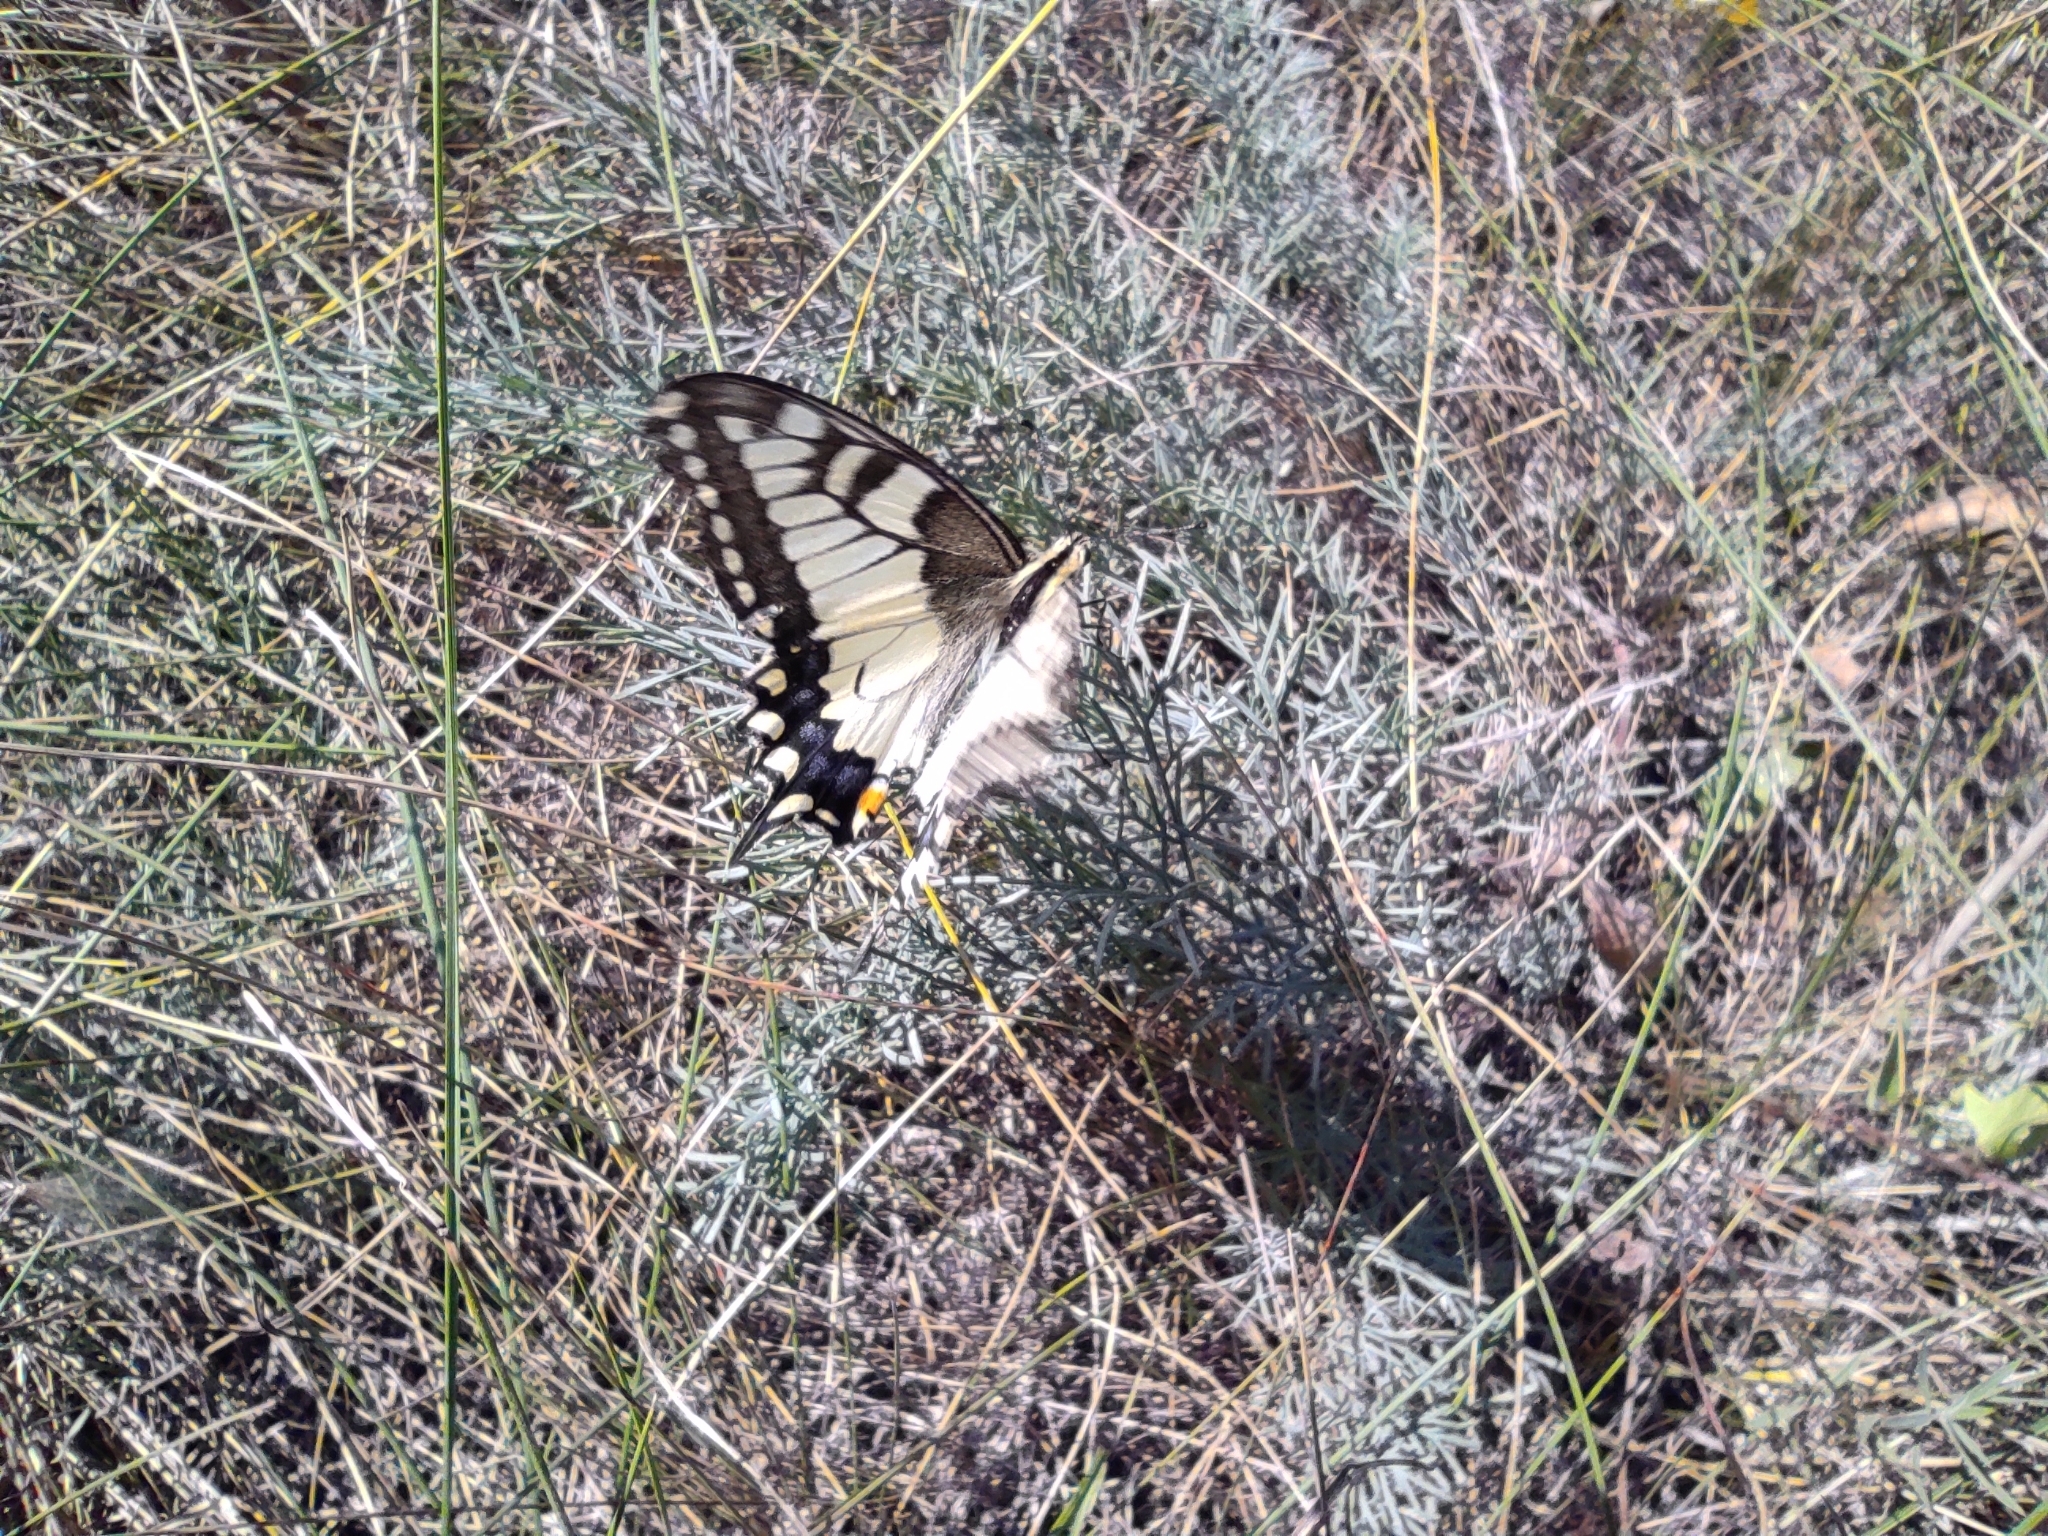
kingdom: Animalia
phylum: Arthropoda
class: Insecta
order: Lepidoptera
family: Papilionidae
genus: Papilio
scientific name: Papilio machaon
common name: Swallowtail
